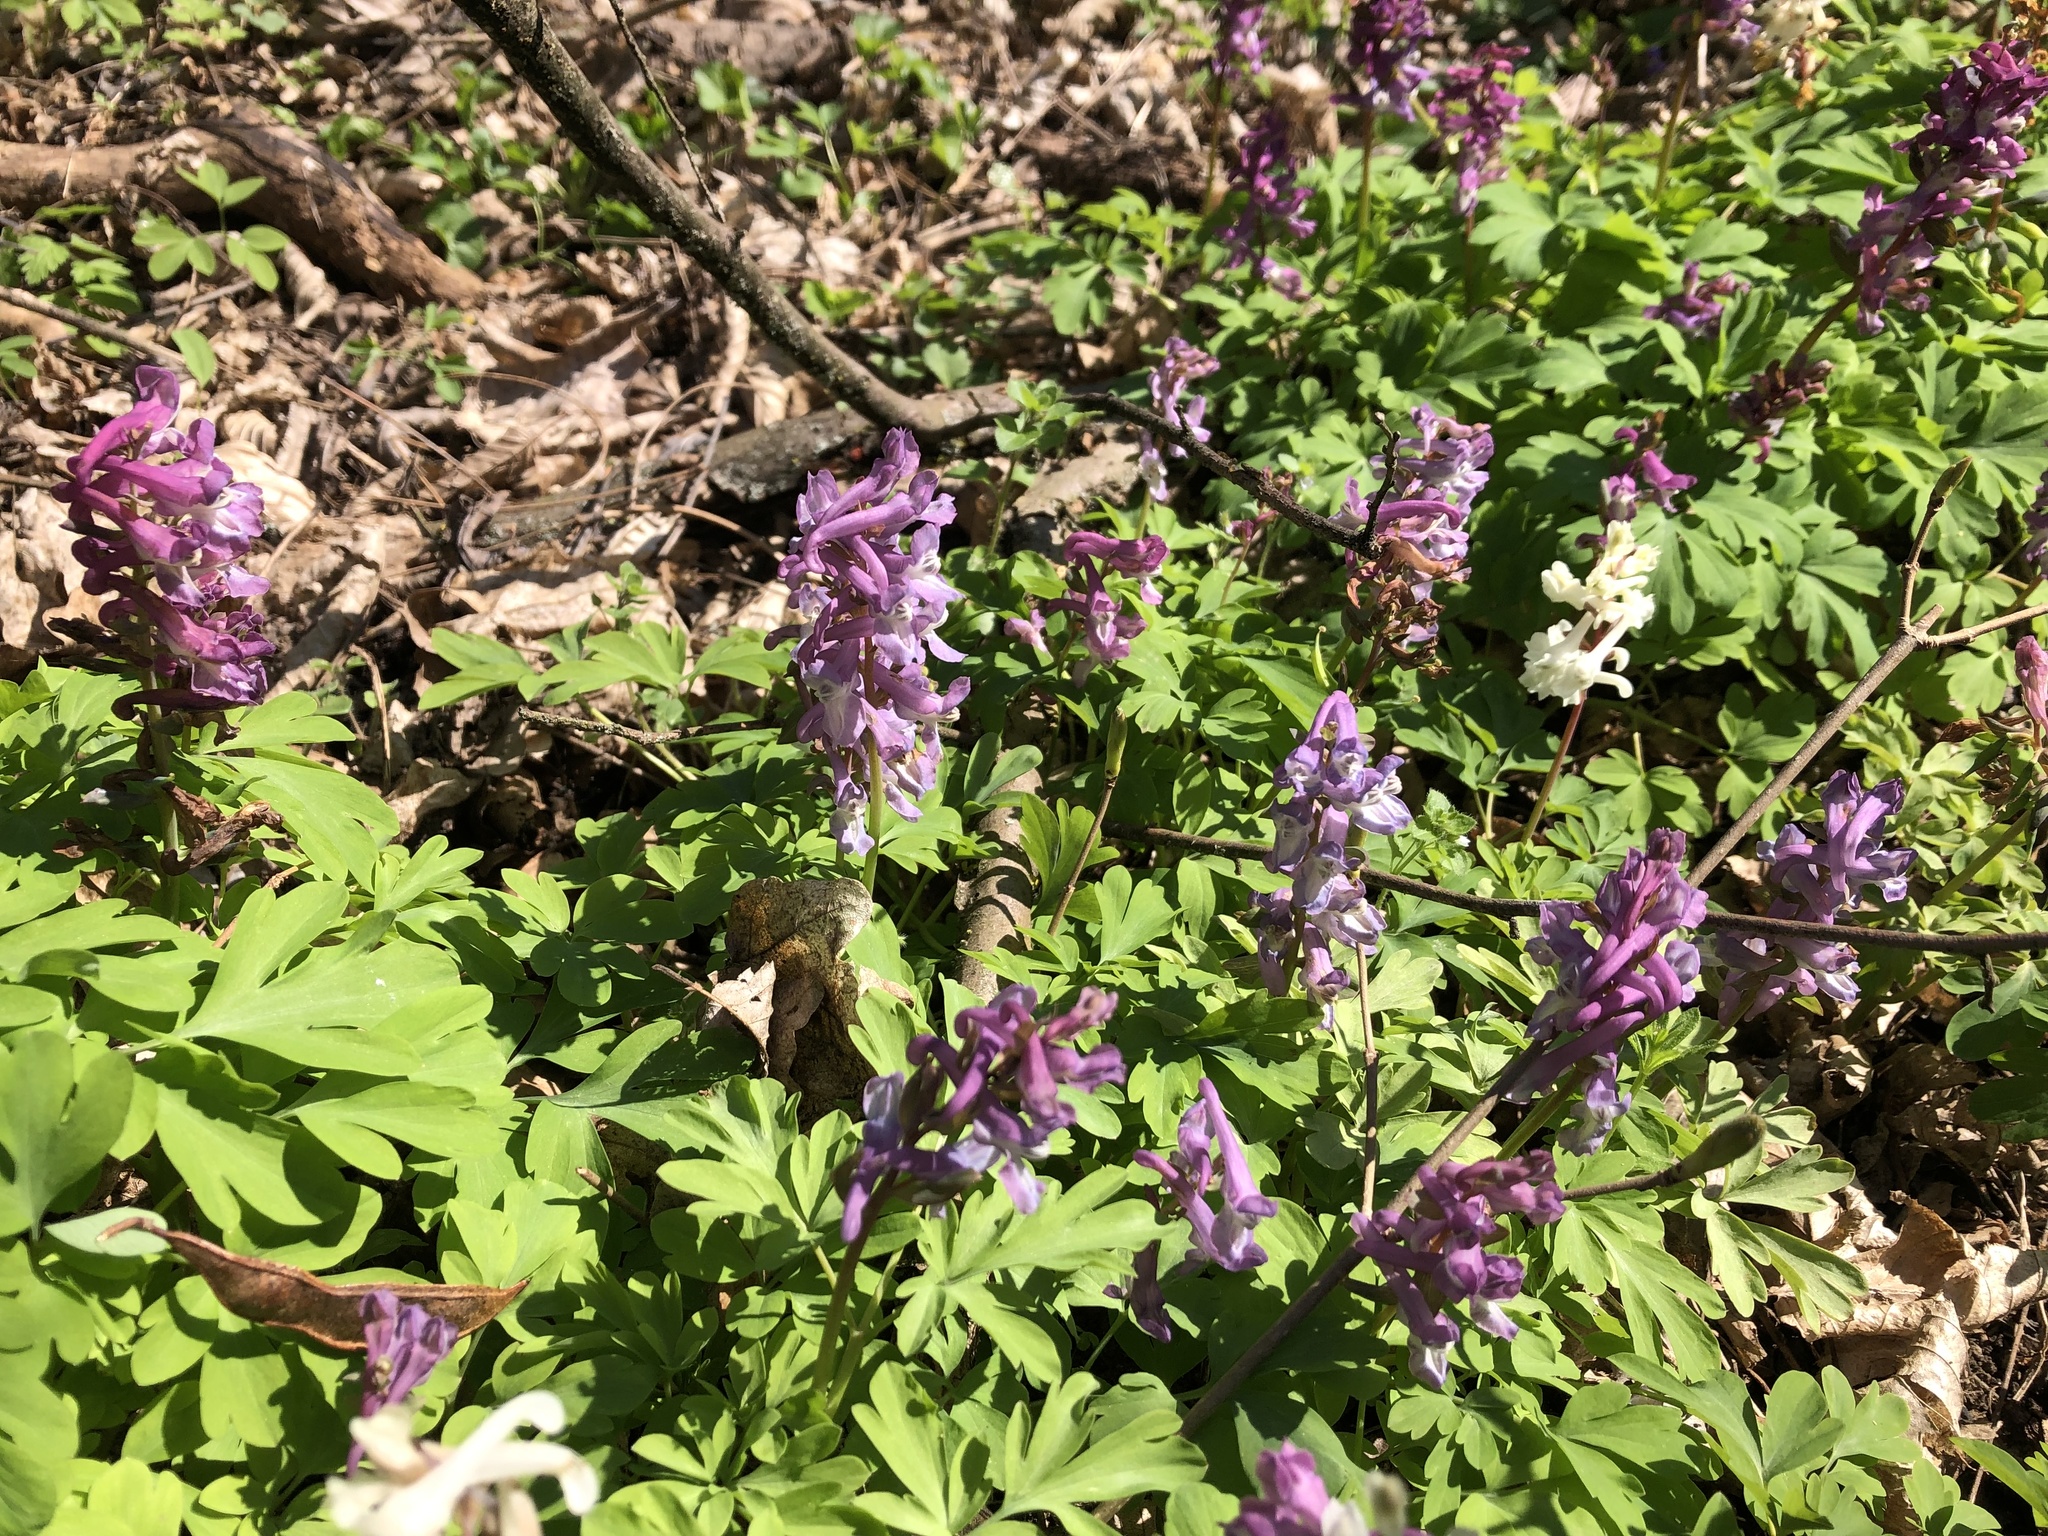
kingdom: Plantae
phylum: Tracheophyta
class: Magnoliopsida
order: Ranunculales
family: Papaveraceae
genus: Corydalis
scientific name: Corydalis cava
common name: Hollowroot
